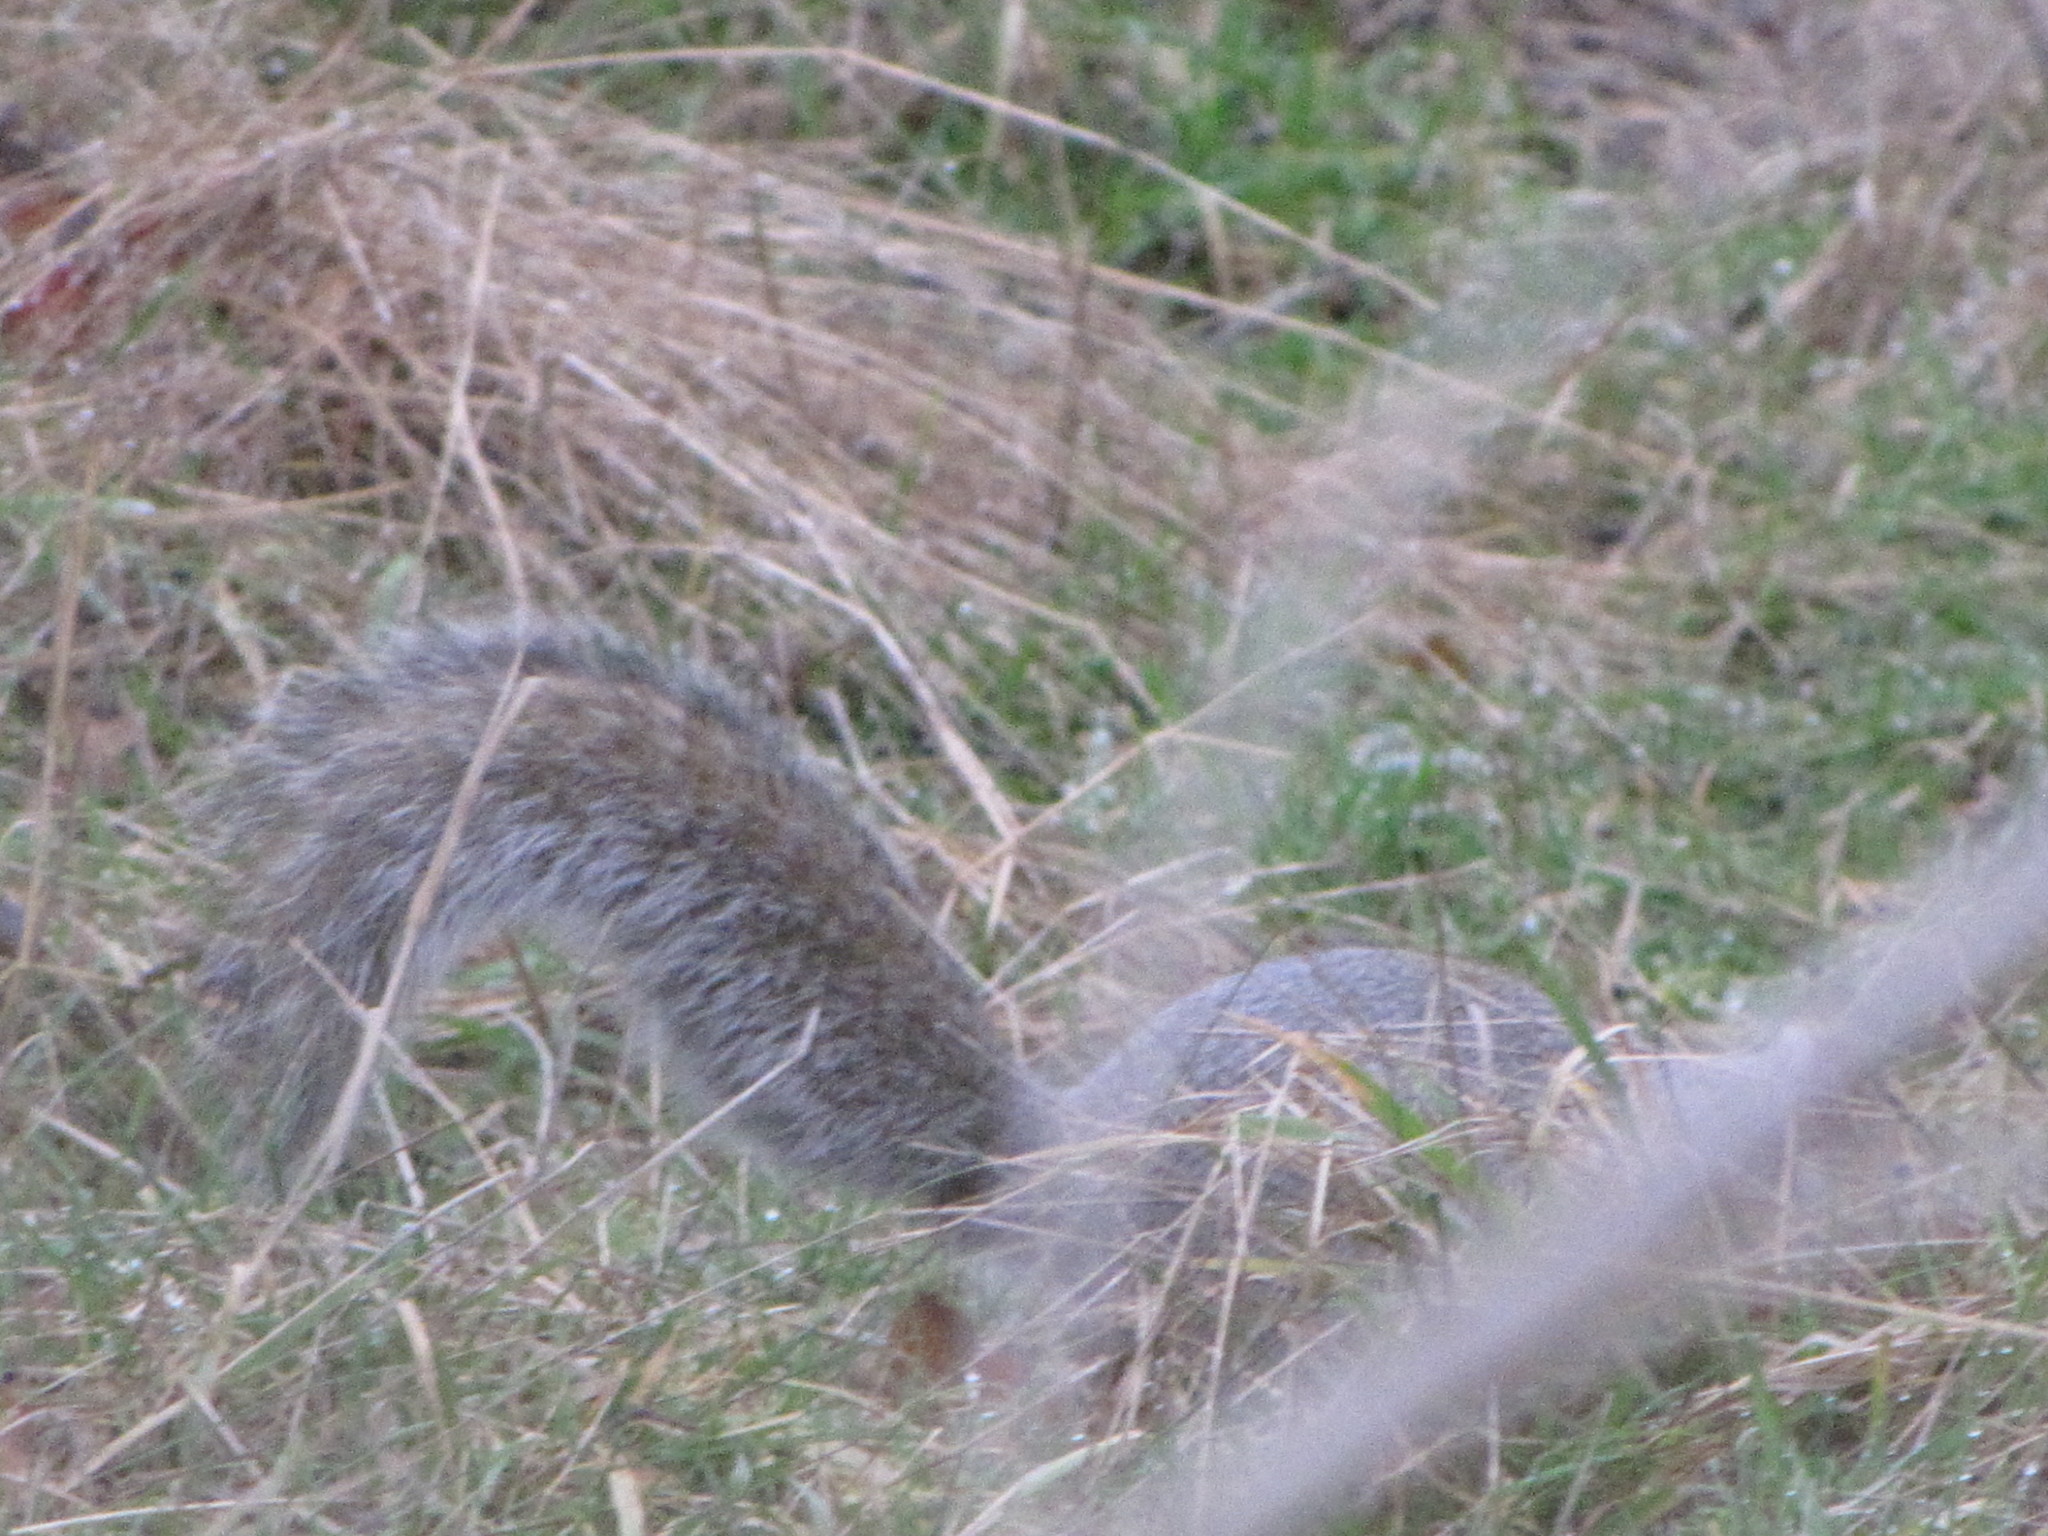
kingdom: Animalia
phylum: Chordata
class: Mammalia
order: Rodentia
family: Sciuridae
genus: Sciurus
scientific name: Sciurus carolinensis
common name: Eastern gray squirrel
